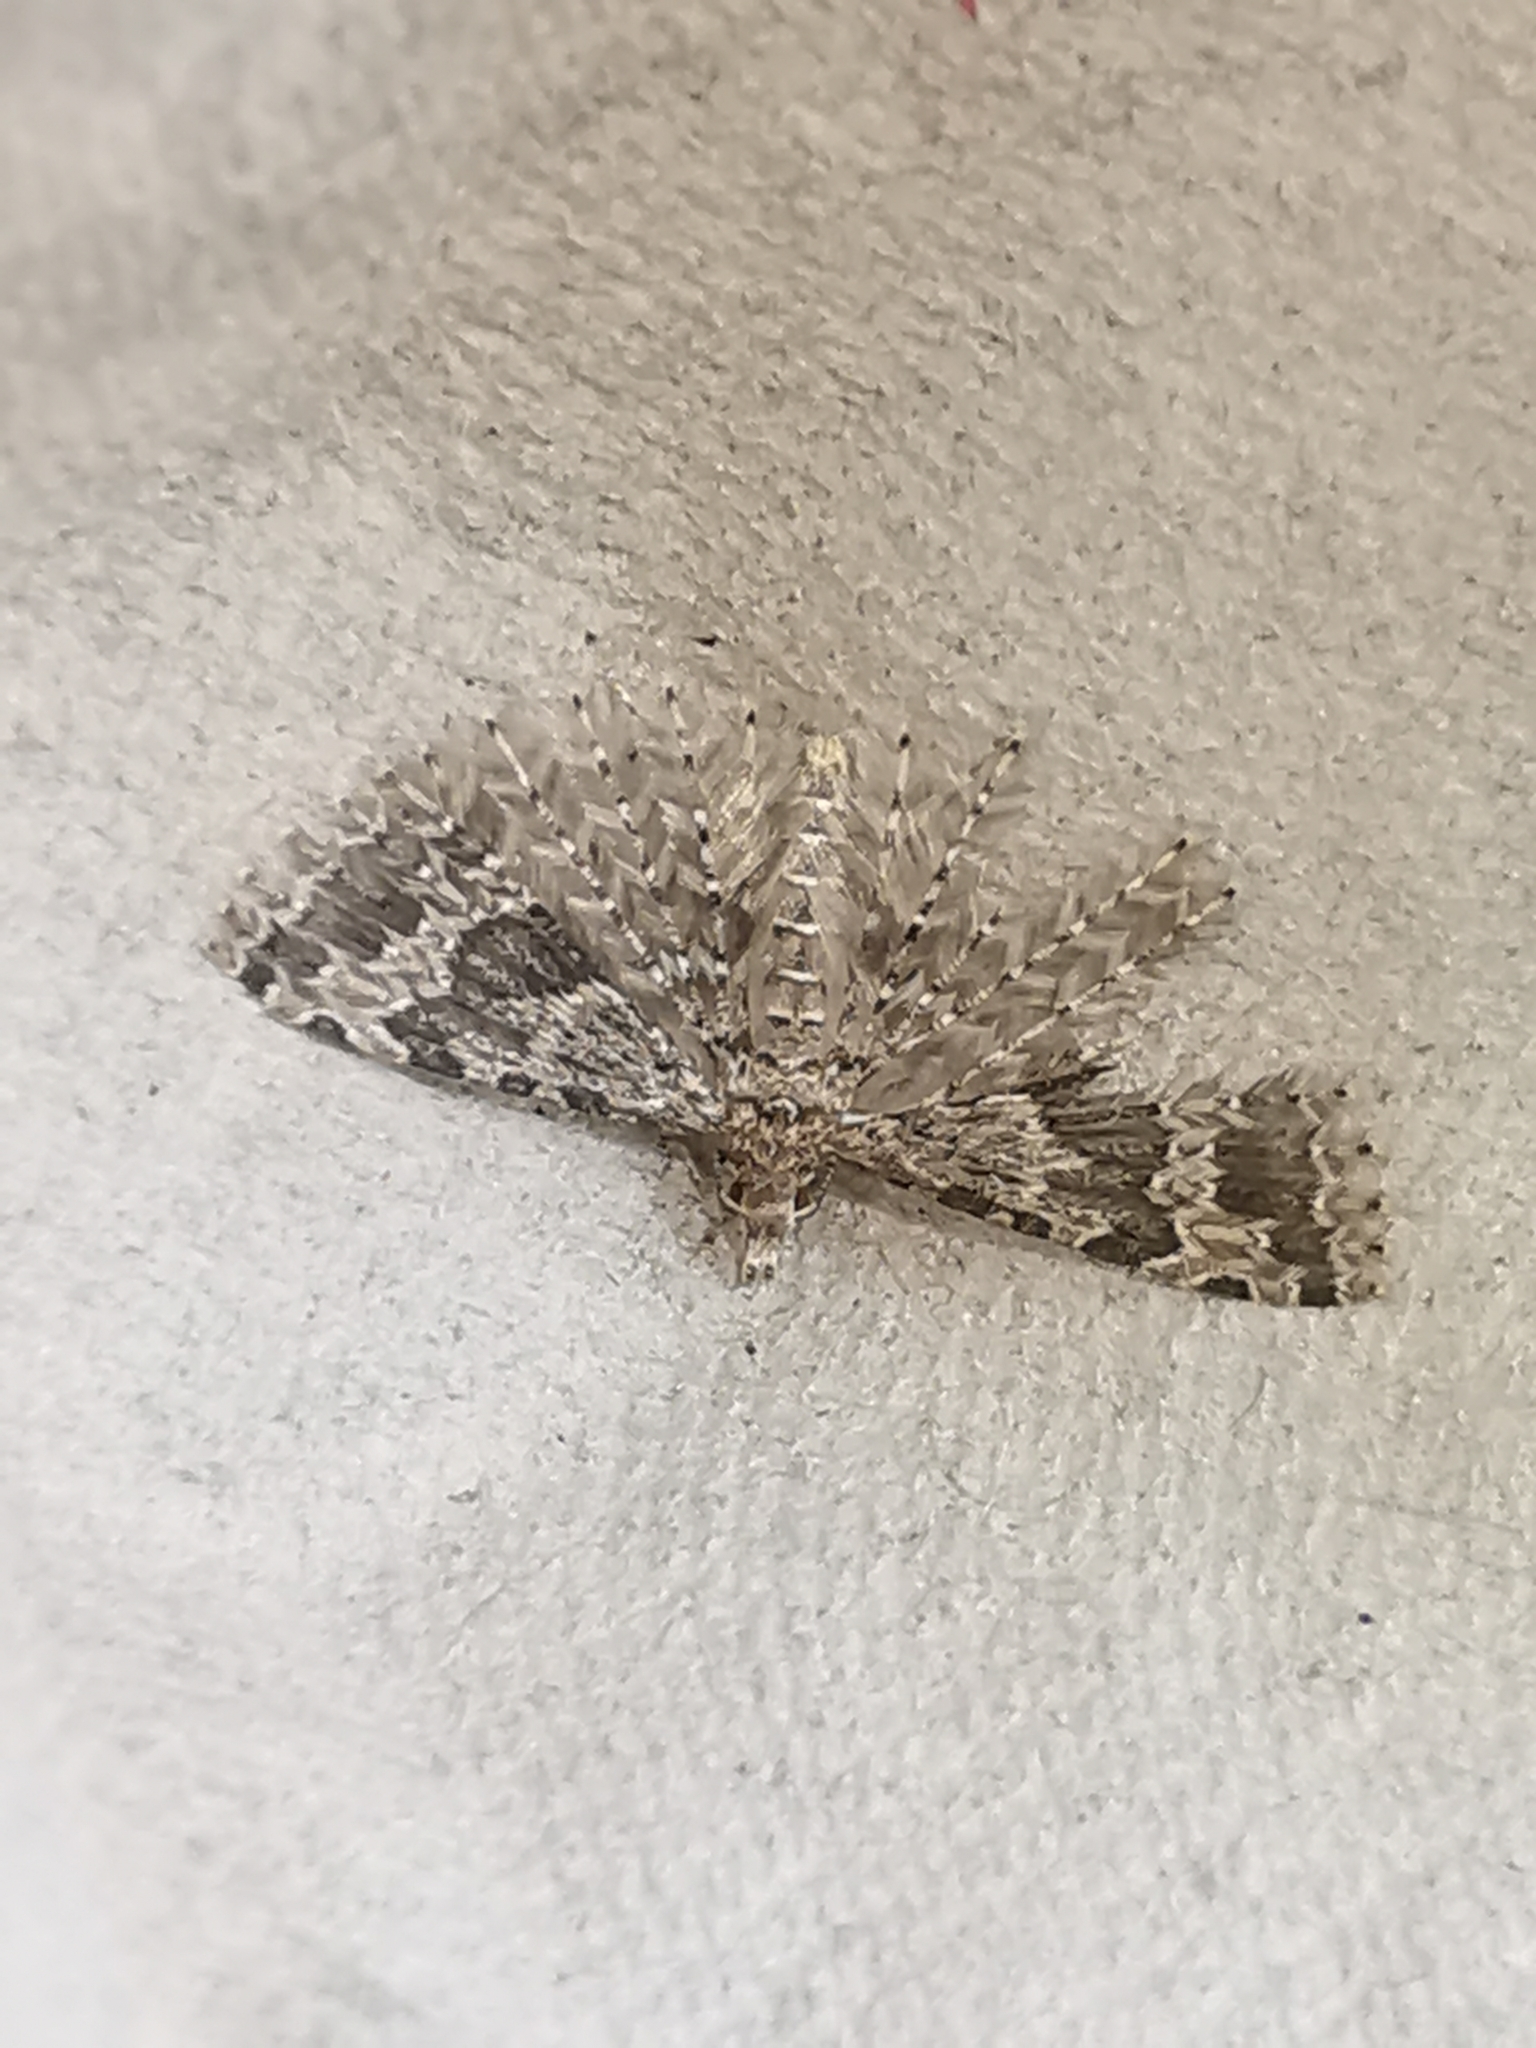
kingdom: Animalia
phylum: Arthropoda
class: Insecta
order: Lepidoptera
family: Alucitidae
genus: Alucita
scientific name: Alucita hexadactyla
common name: Twenty-plume moth
